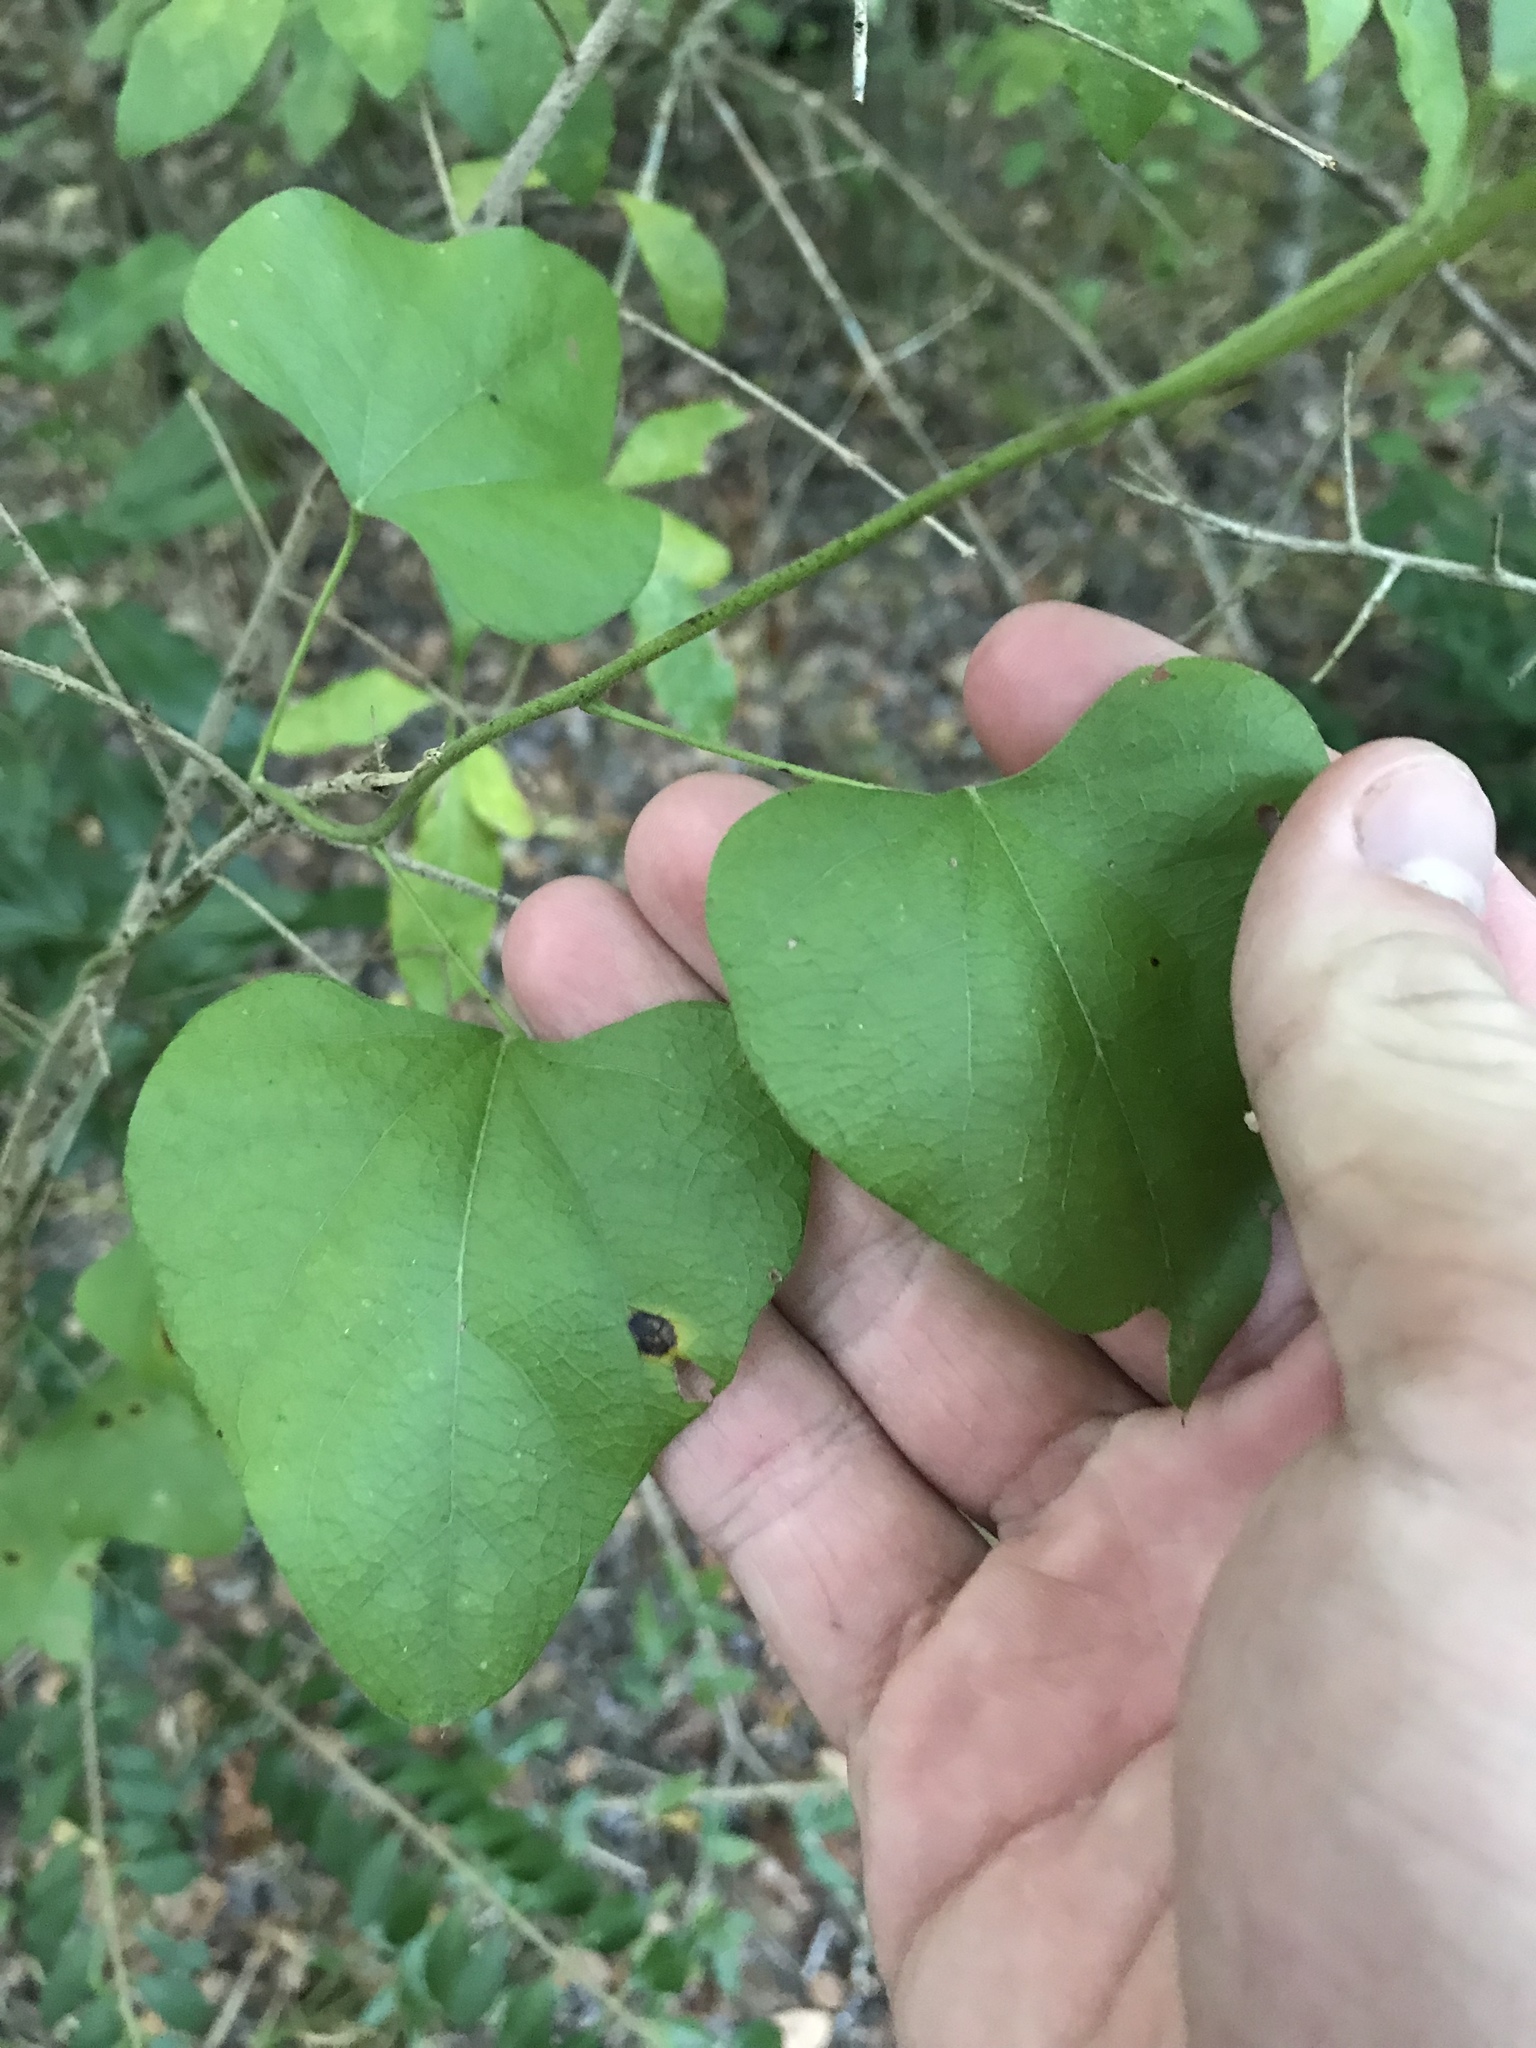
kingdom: Plantae
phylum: Tracheophyta
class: Magnoliopsida
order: Ranunculales
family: Menispermaceae
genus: Cocculus
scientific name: Cocculus carolinus
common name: Carolina moonseed
